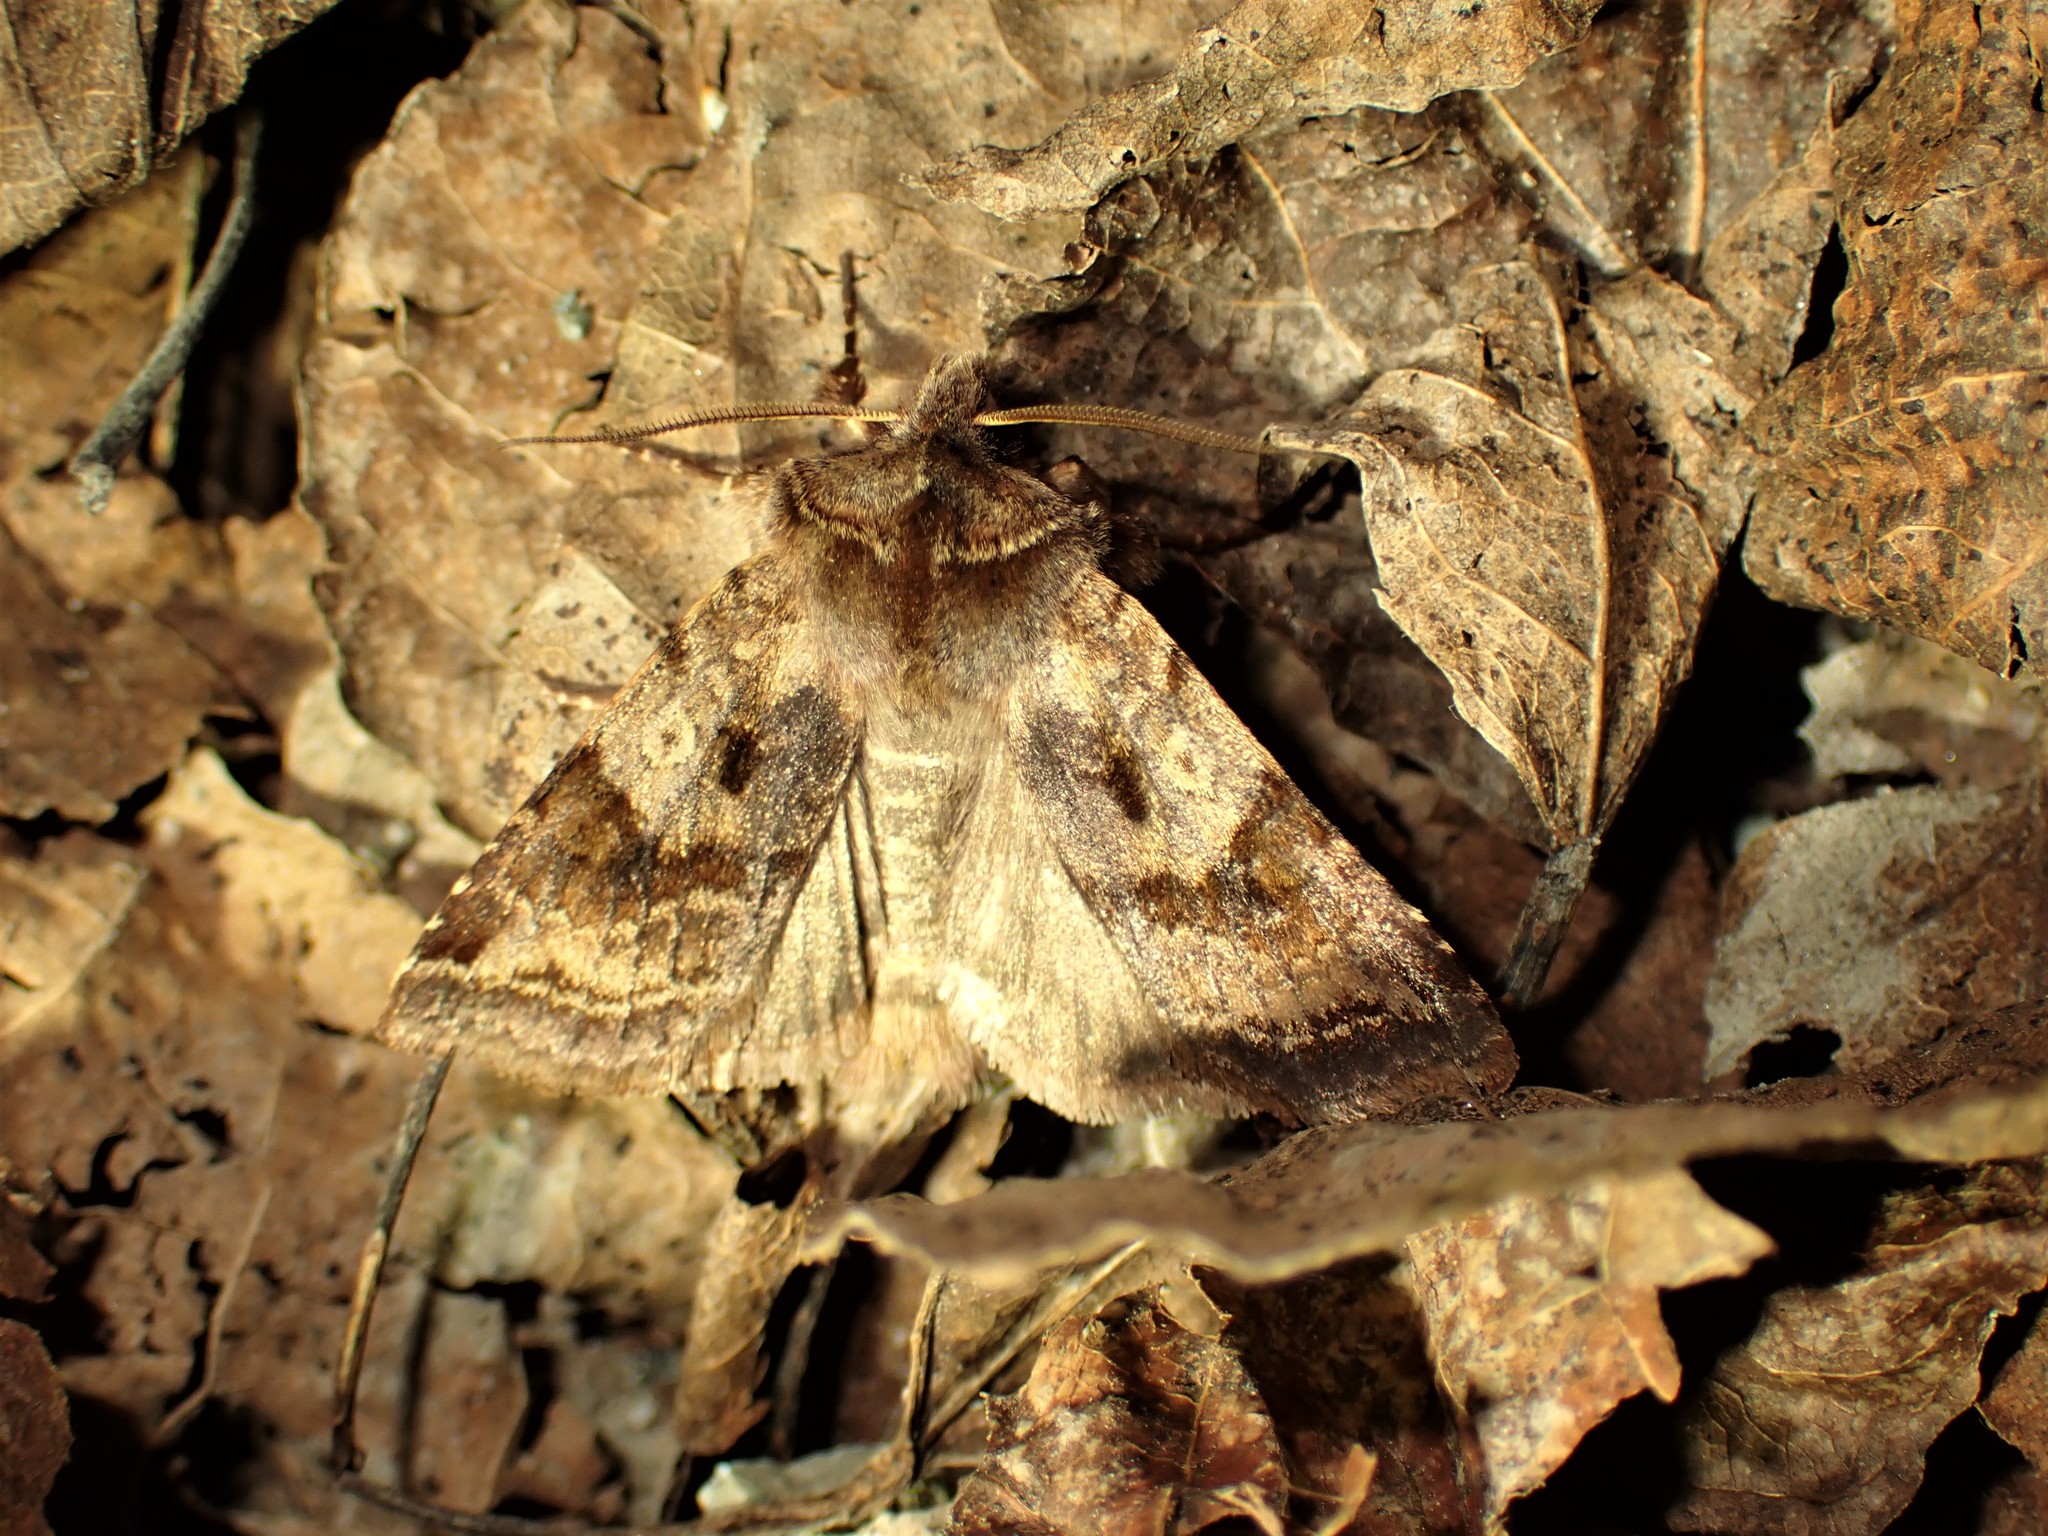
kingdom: Animalia
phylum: Arthropoda
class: Insecta
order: Lepidoptera
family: Noctuidae
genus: Cerastis
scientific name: Cerastis salicarum
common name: Willow dart
